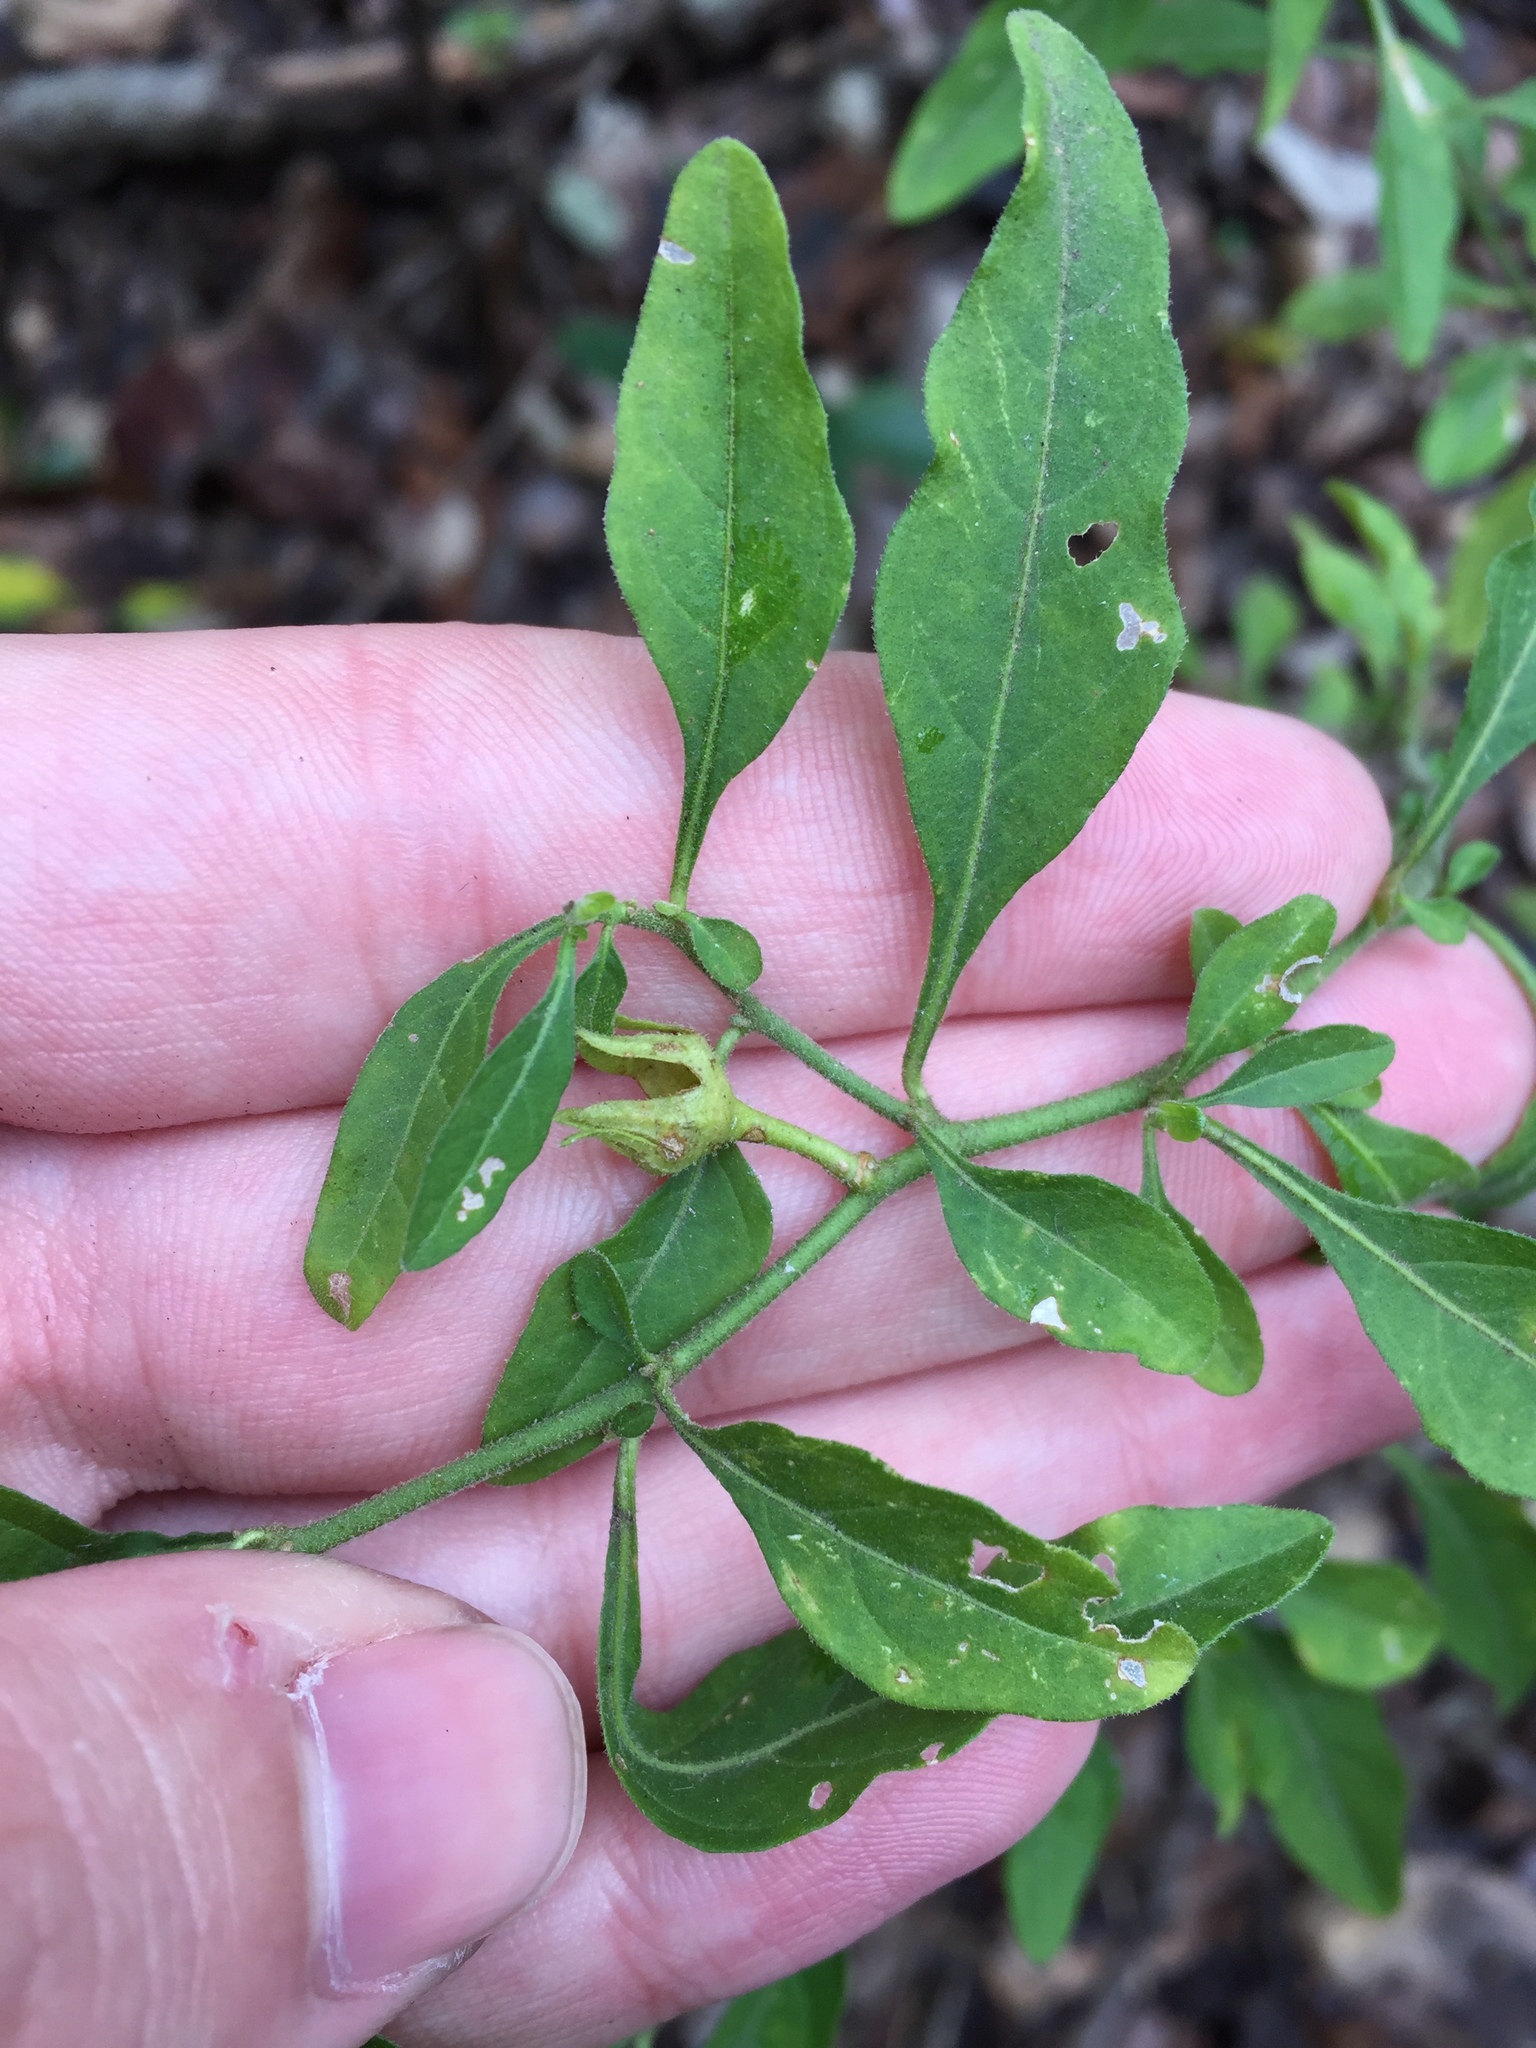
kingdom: Plantae
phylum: Tracheophyta
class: Magnoliopsida
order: Solanales
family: Solanaceae
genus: Solanum
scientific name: Solanum pseudocapsicum
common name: Jerusalem cherry
